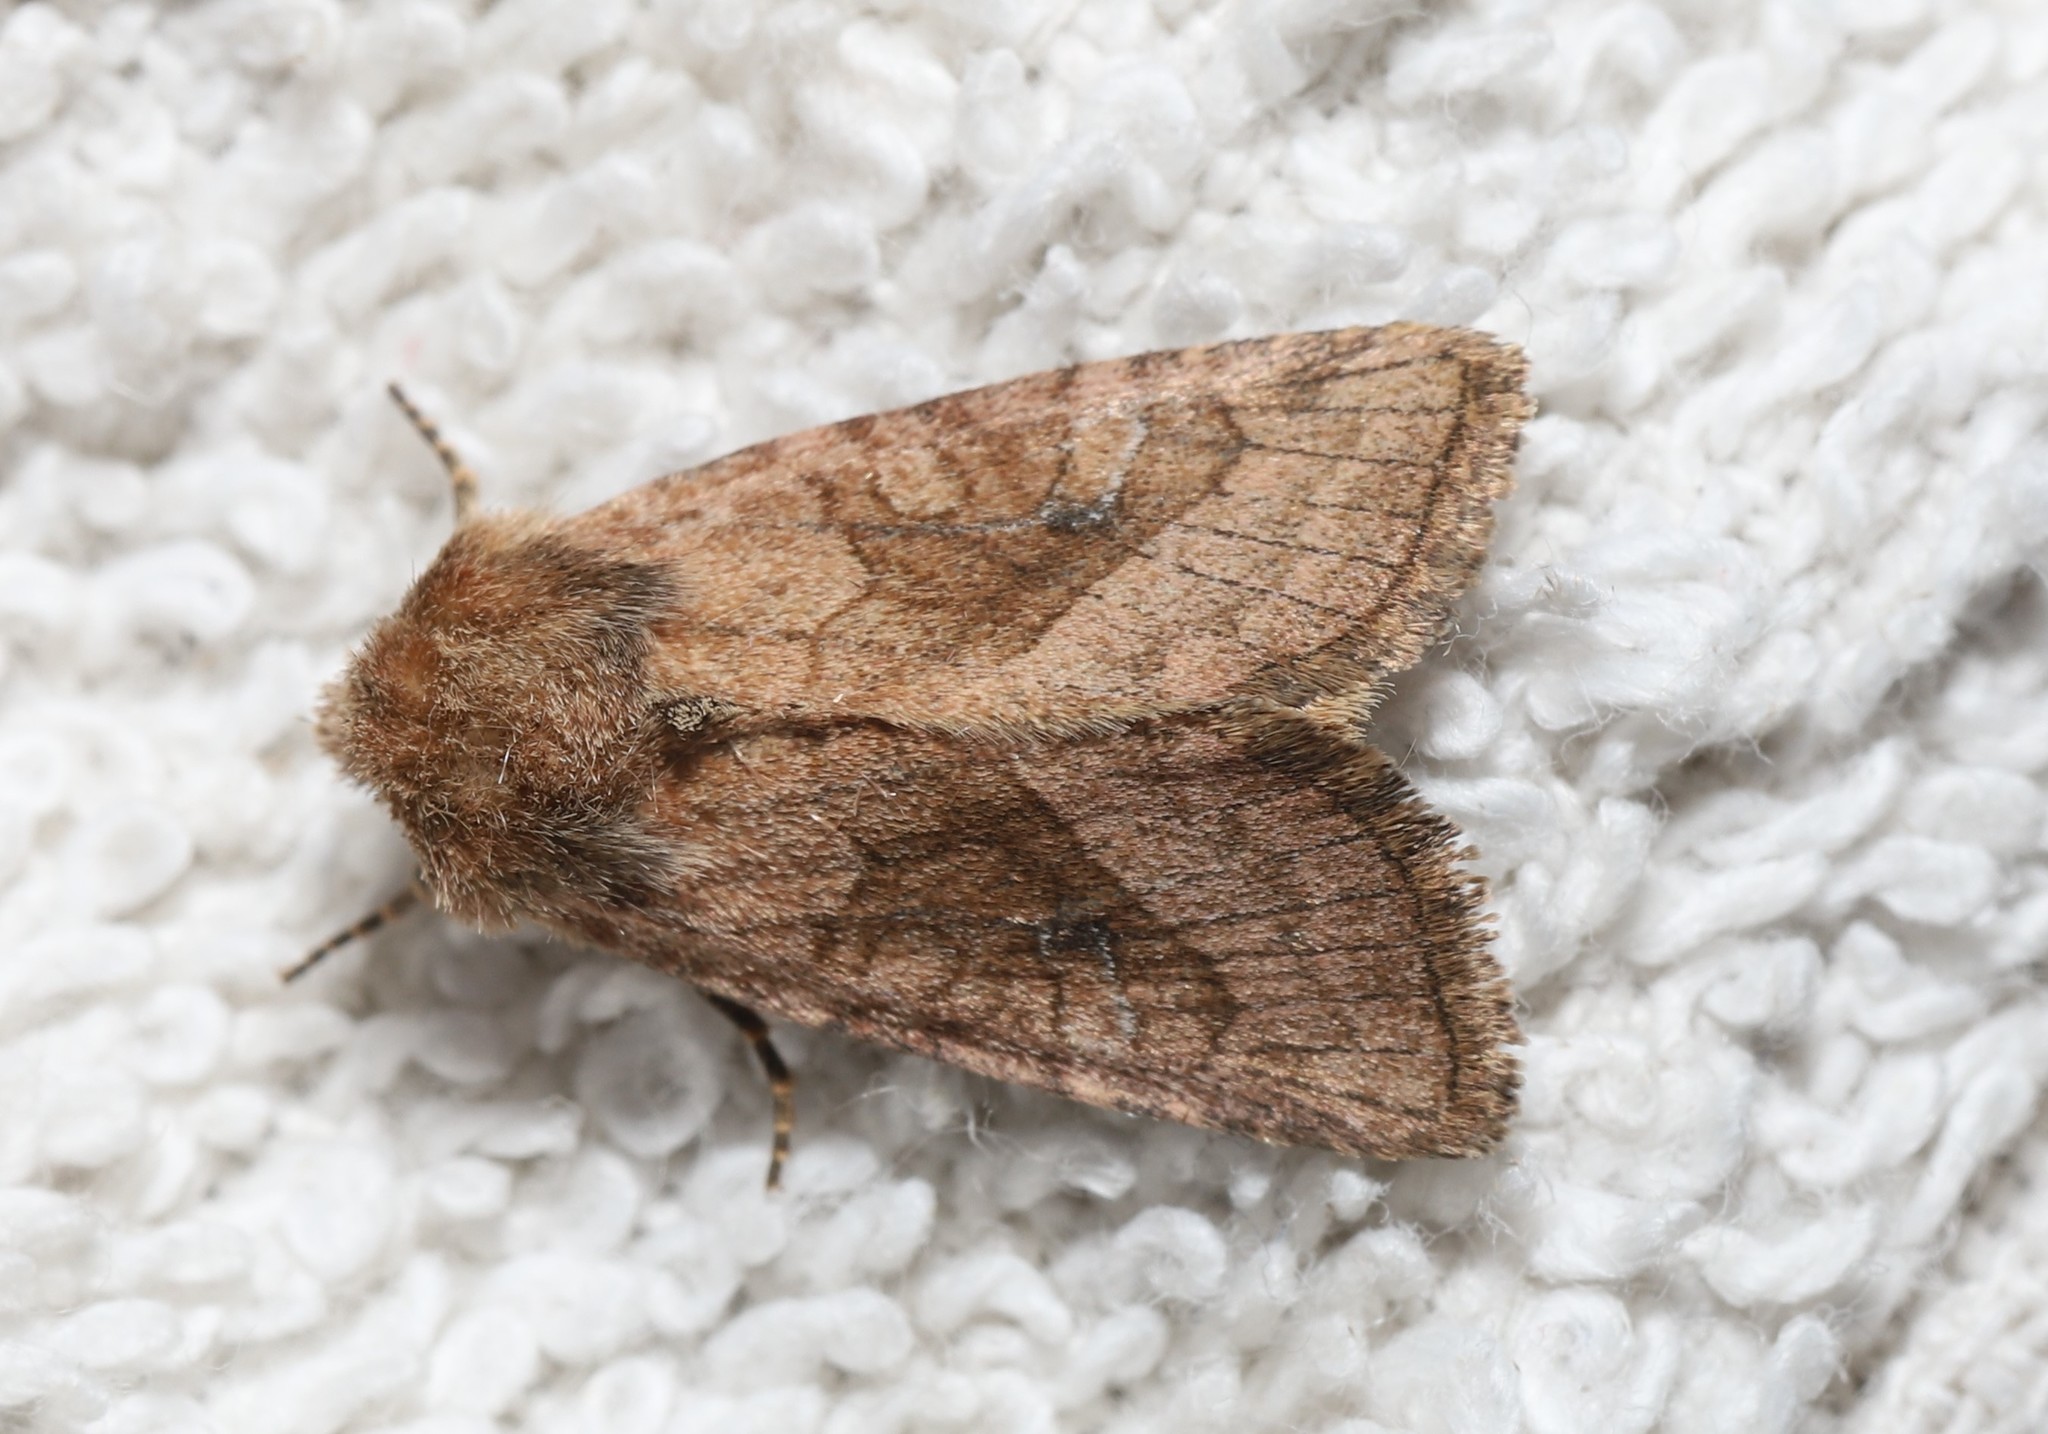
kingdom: Animalia
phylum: Arthropoda
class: Insecta
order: Lepidoptera
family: Noctuidae
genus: Lacinipolia
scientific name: Lacinipolia lorea
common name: Bridled arches moth
